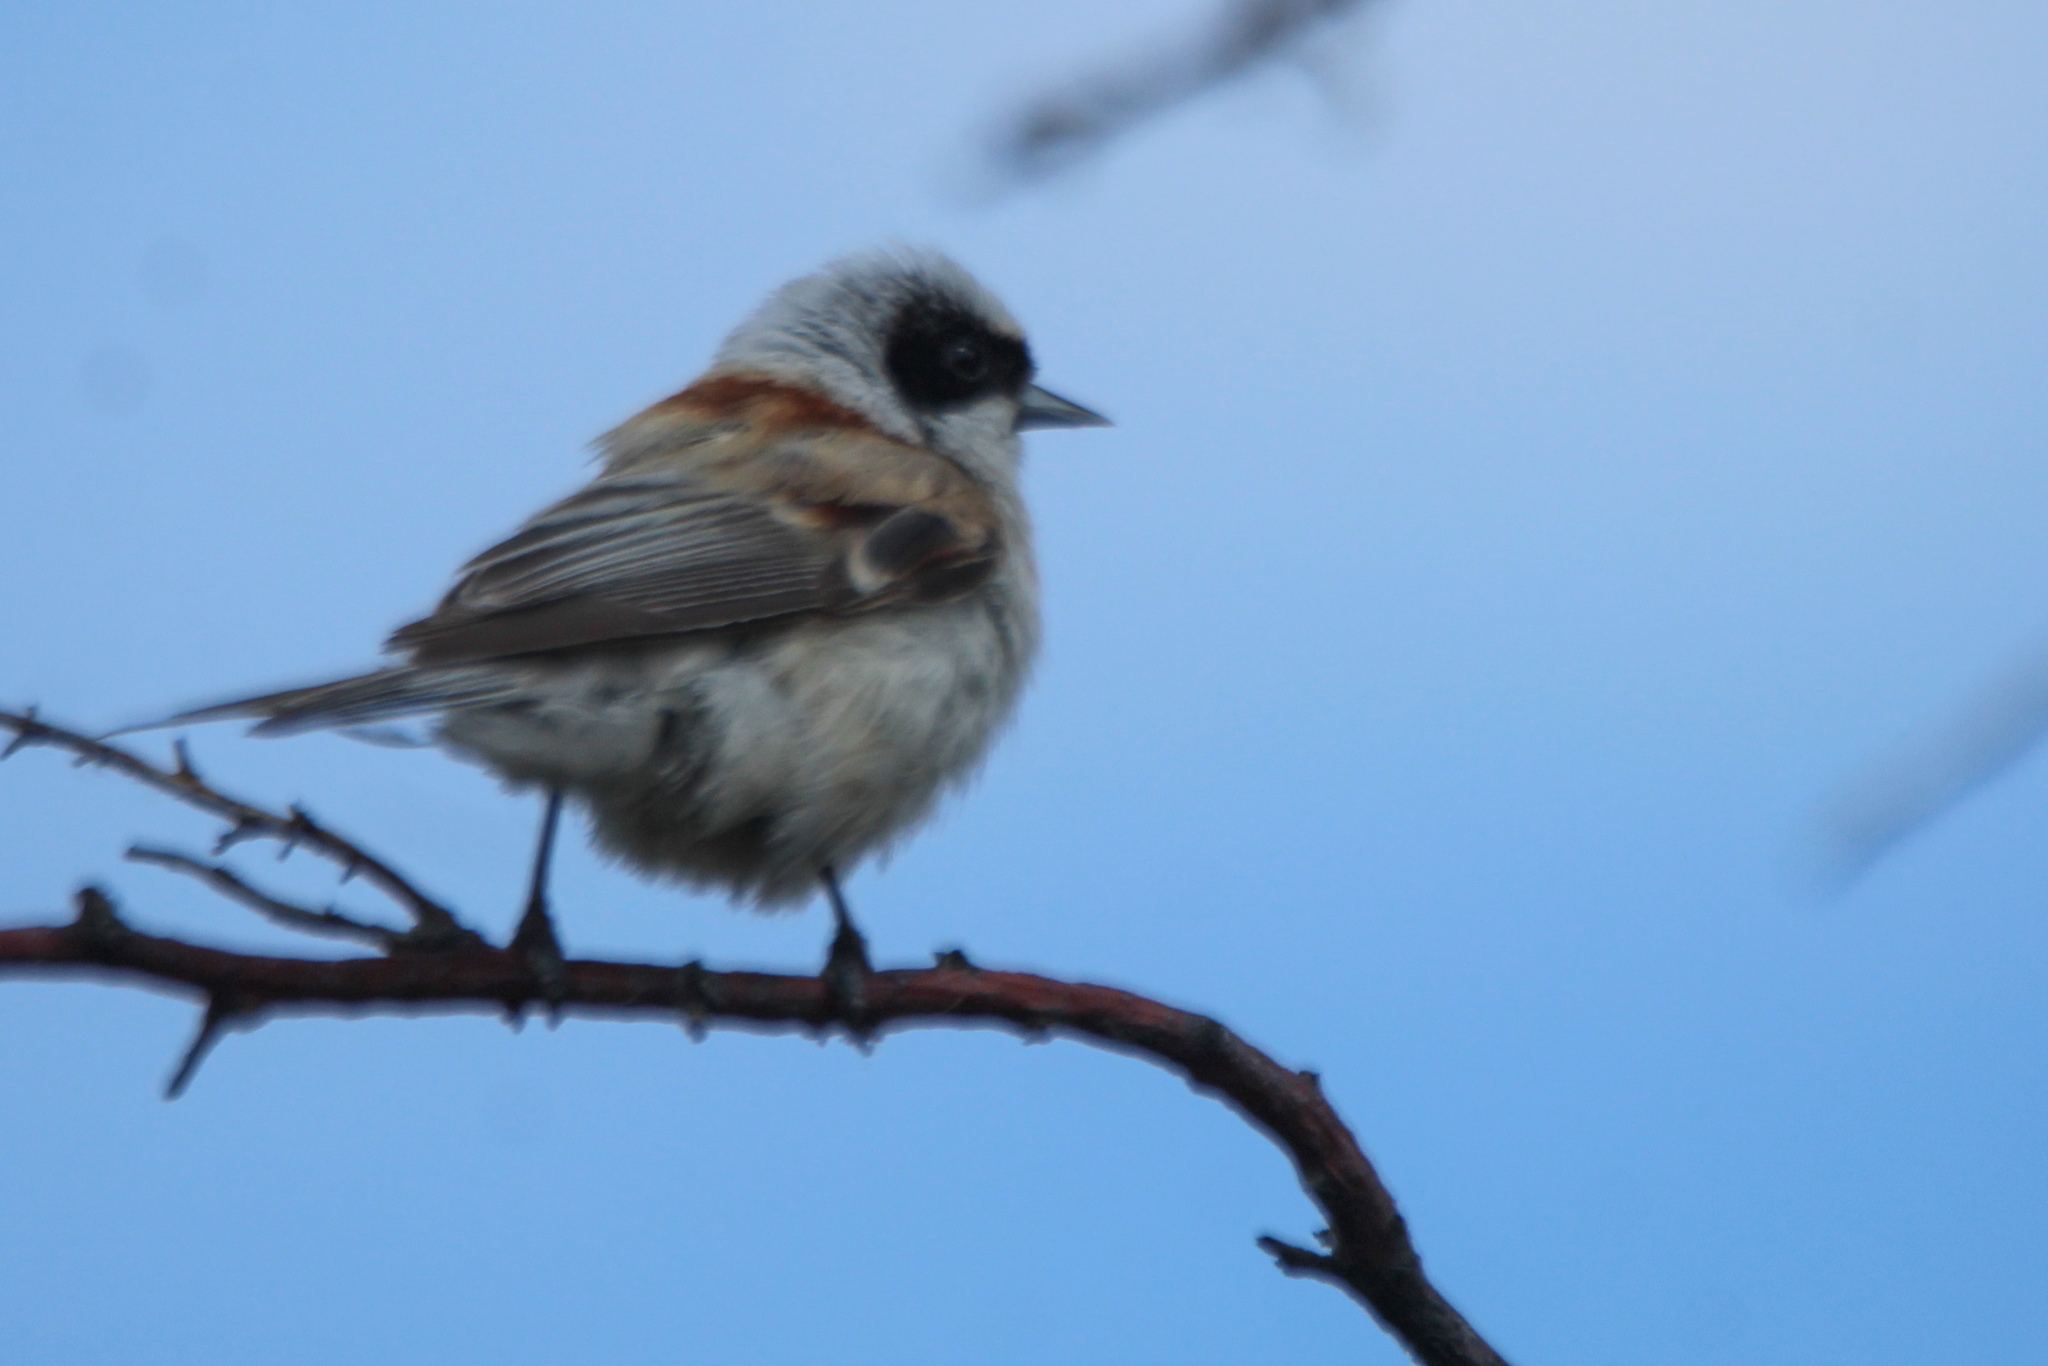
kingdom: Animalia
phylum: Chordata
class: Aves
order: Passeriformes
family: Remizidae
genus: Remiz
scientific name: Remiz pendulinus
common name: Eurasian penduline tit
